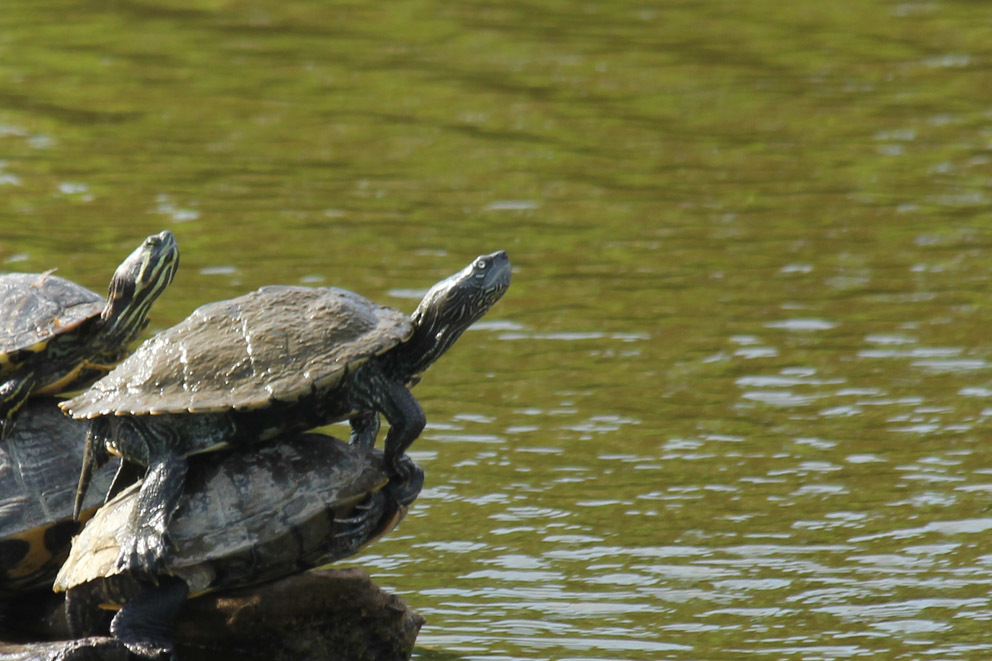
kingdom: Animalia
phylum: Chordata
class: Testudines
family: Emydidae
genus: Graptemys
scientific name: Graptemys pseudogeographica
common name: False map turtle
